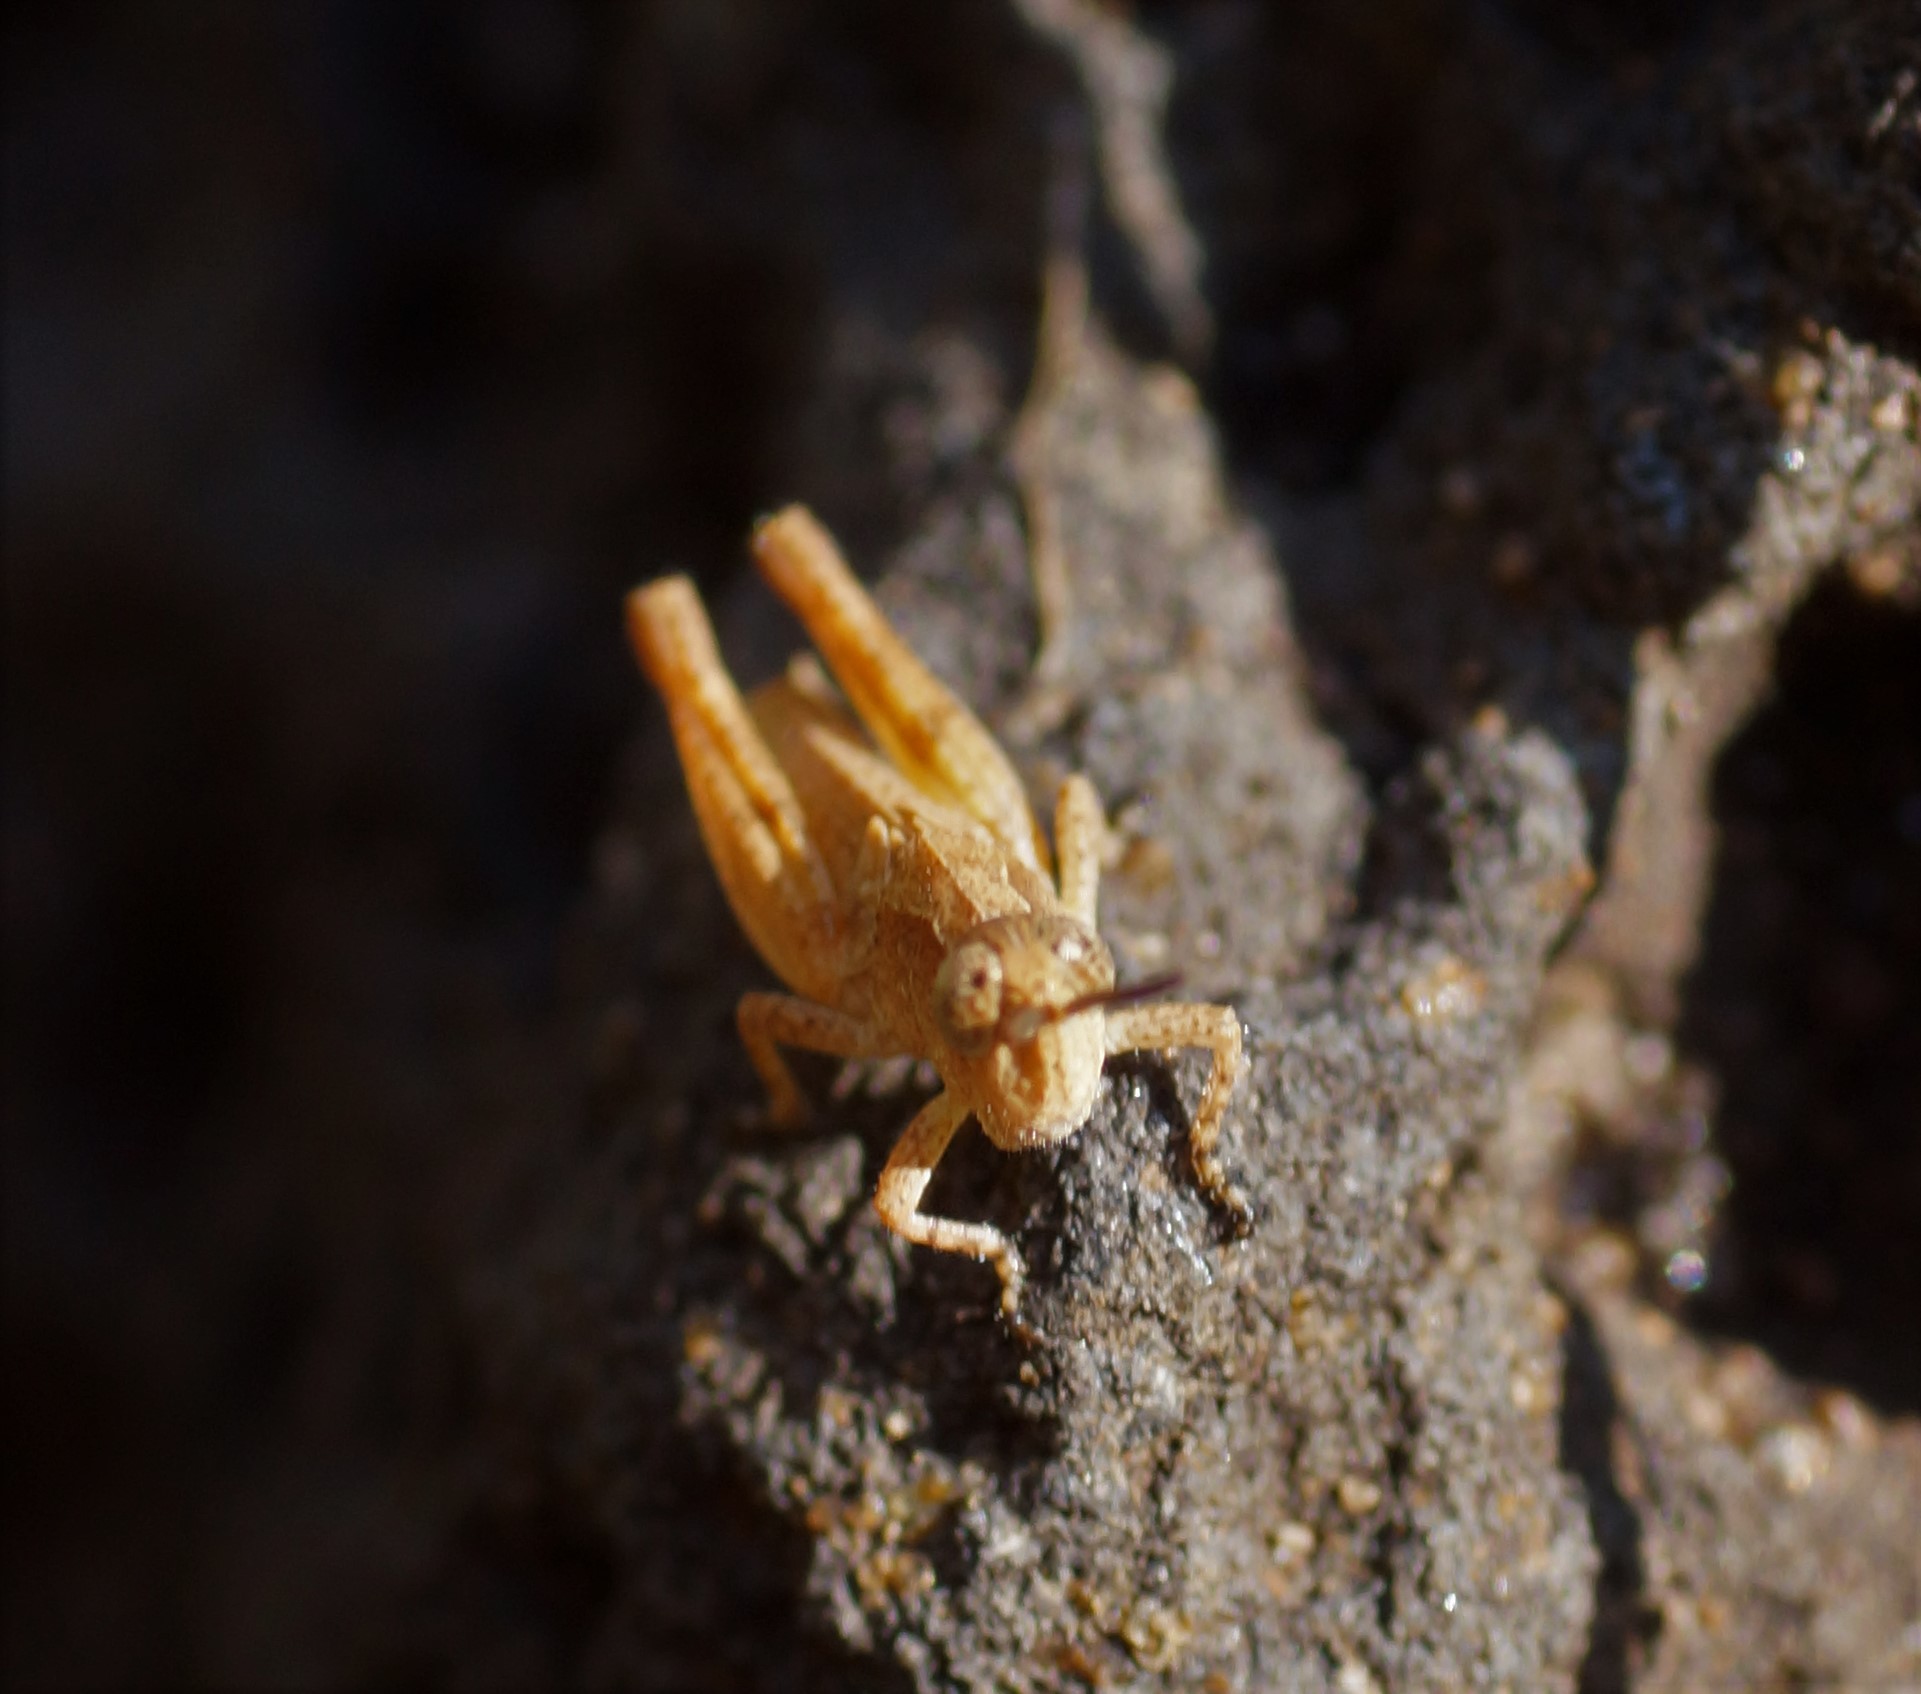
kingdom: Animalia
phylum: Arthropoda
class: Insecta
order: Orthoptera
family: Acrididae
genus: Phaulacridium
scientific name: Phaulacridium vittatum
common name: Wingless grasshopper
